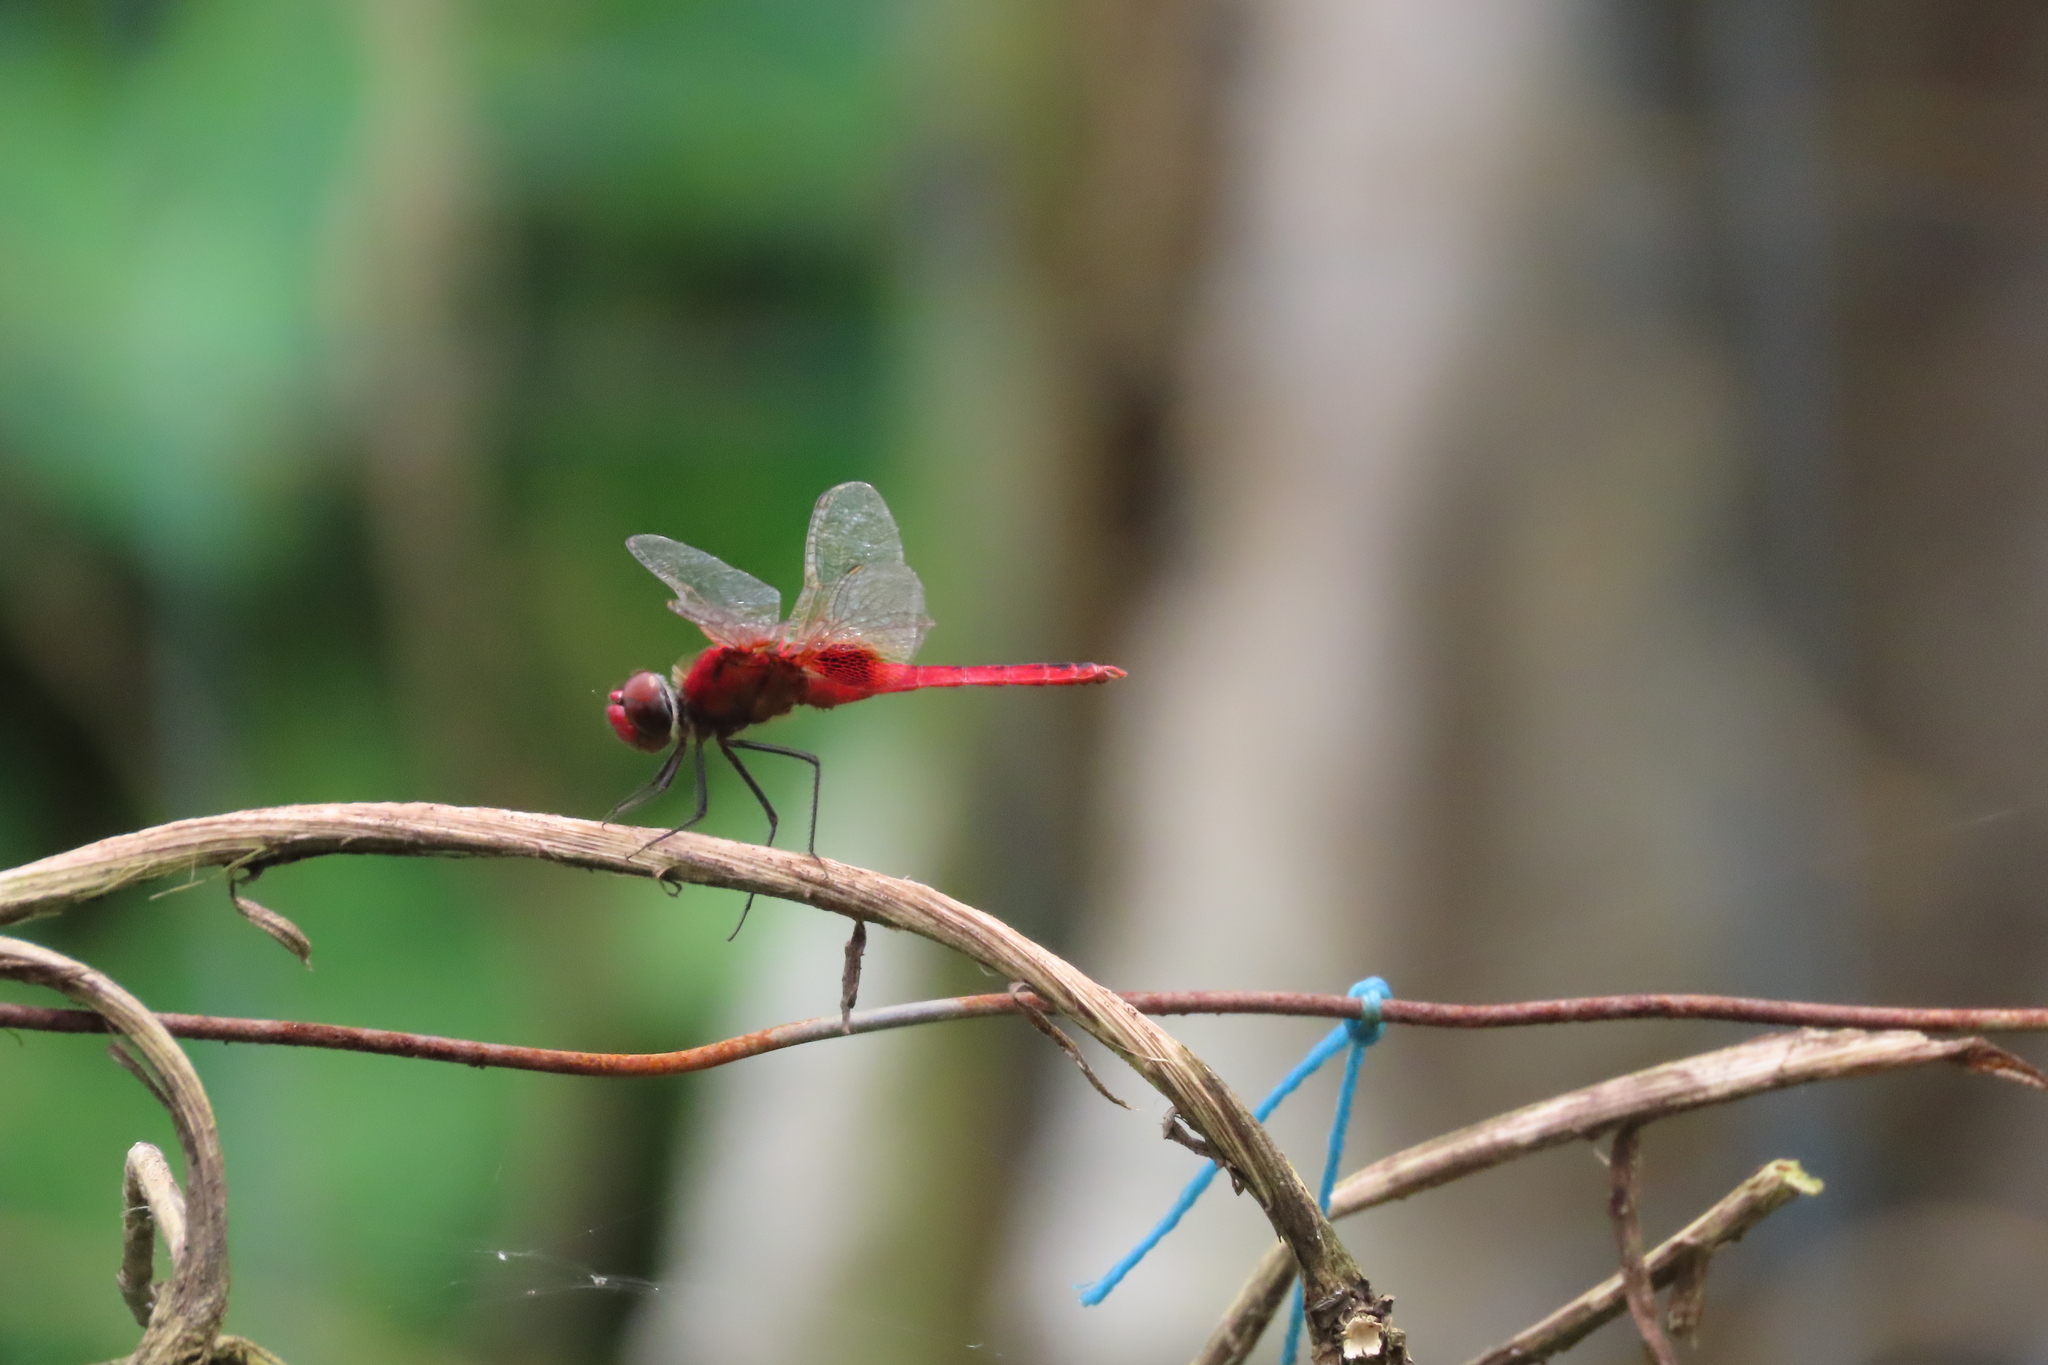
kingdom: Animalia
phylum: Arthropoda
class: Insecta
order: Odonata
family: Libellulidae
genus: Urothemis
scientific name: Urothemis signata
